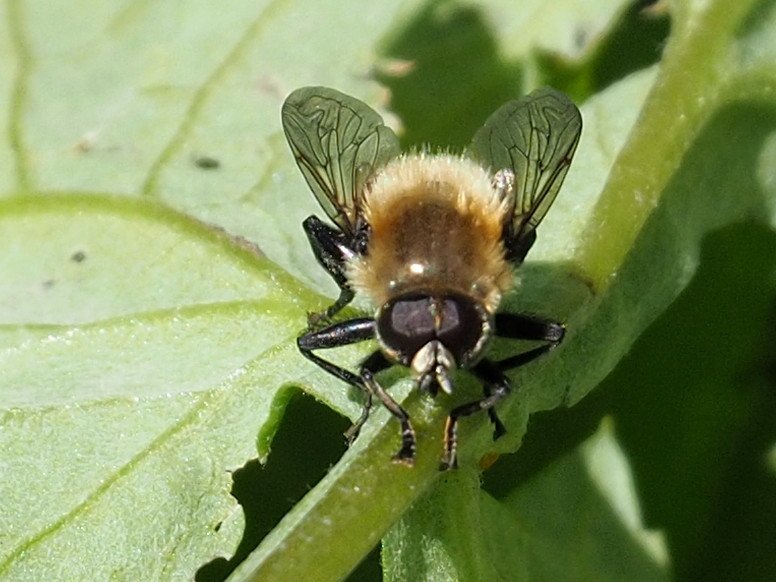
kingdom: Animalia
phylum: Arthropoda
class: Insecta
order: Diptera
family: Syrphidae
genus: Merodon
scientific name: Merodon equestris
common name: Greater bulb-fly
